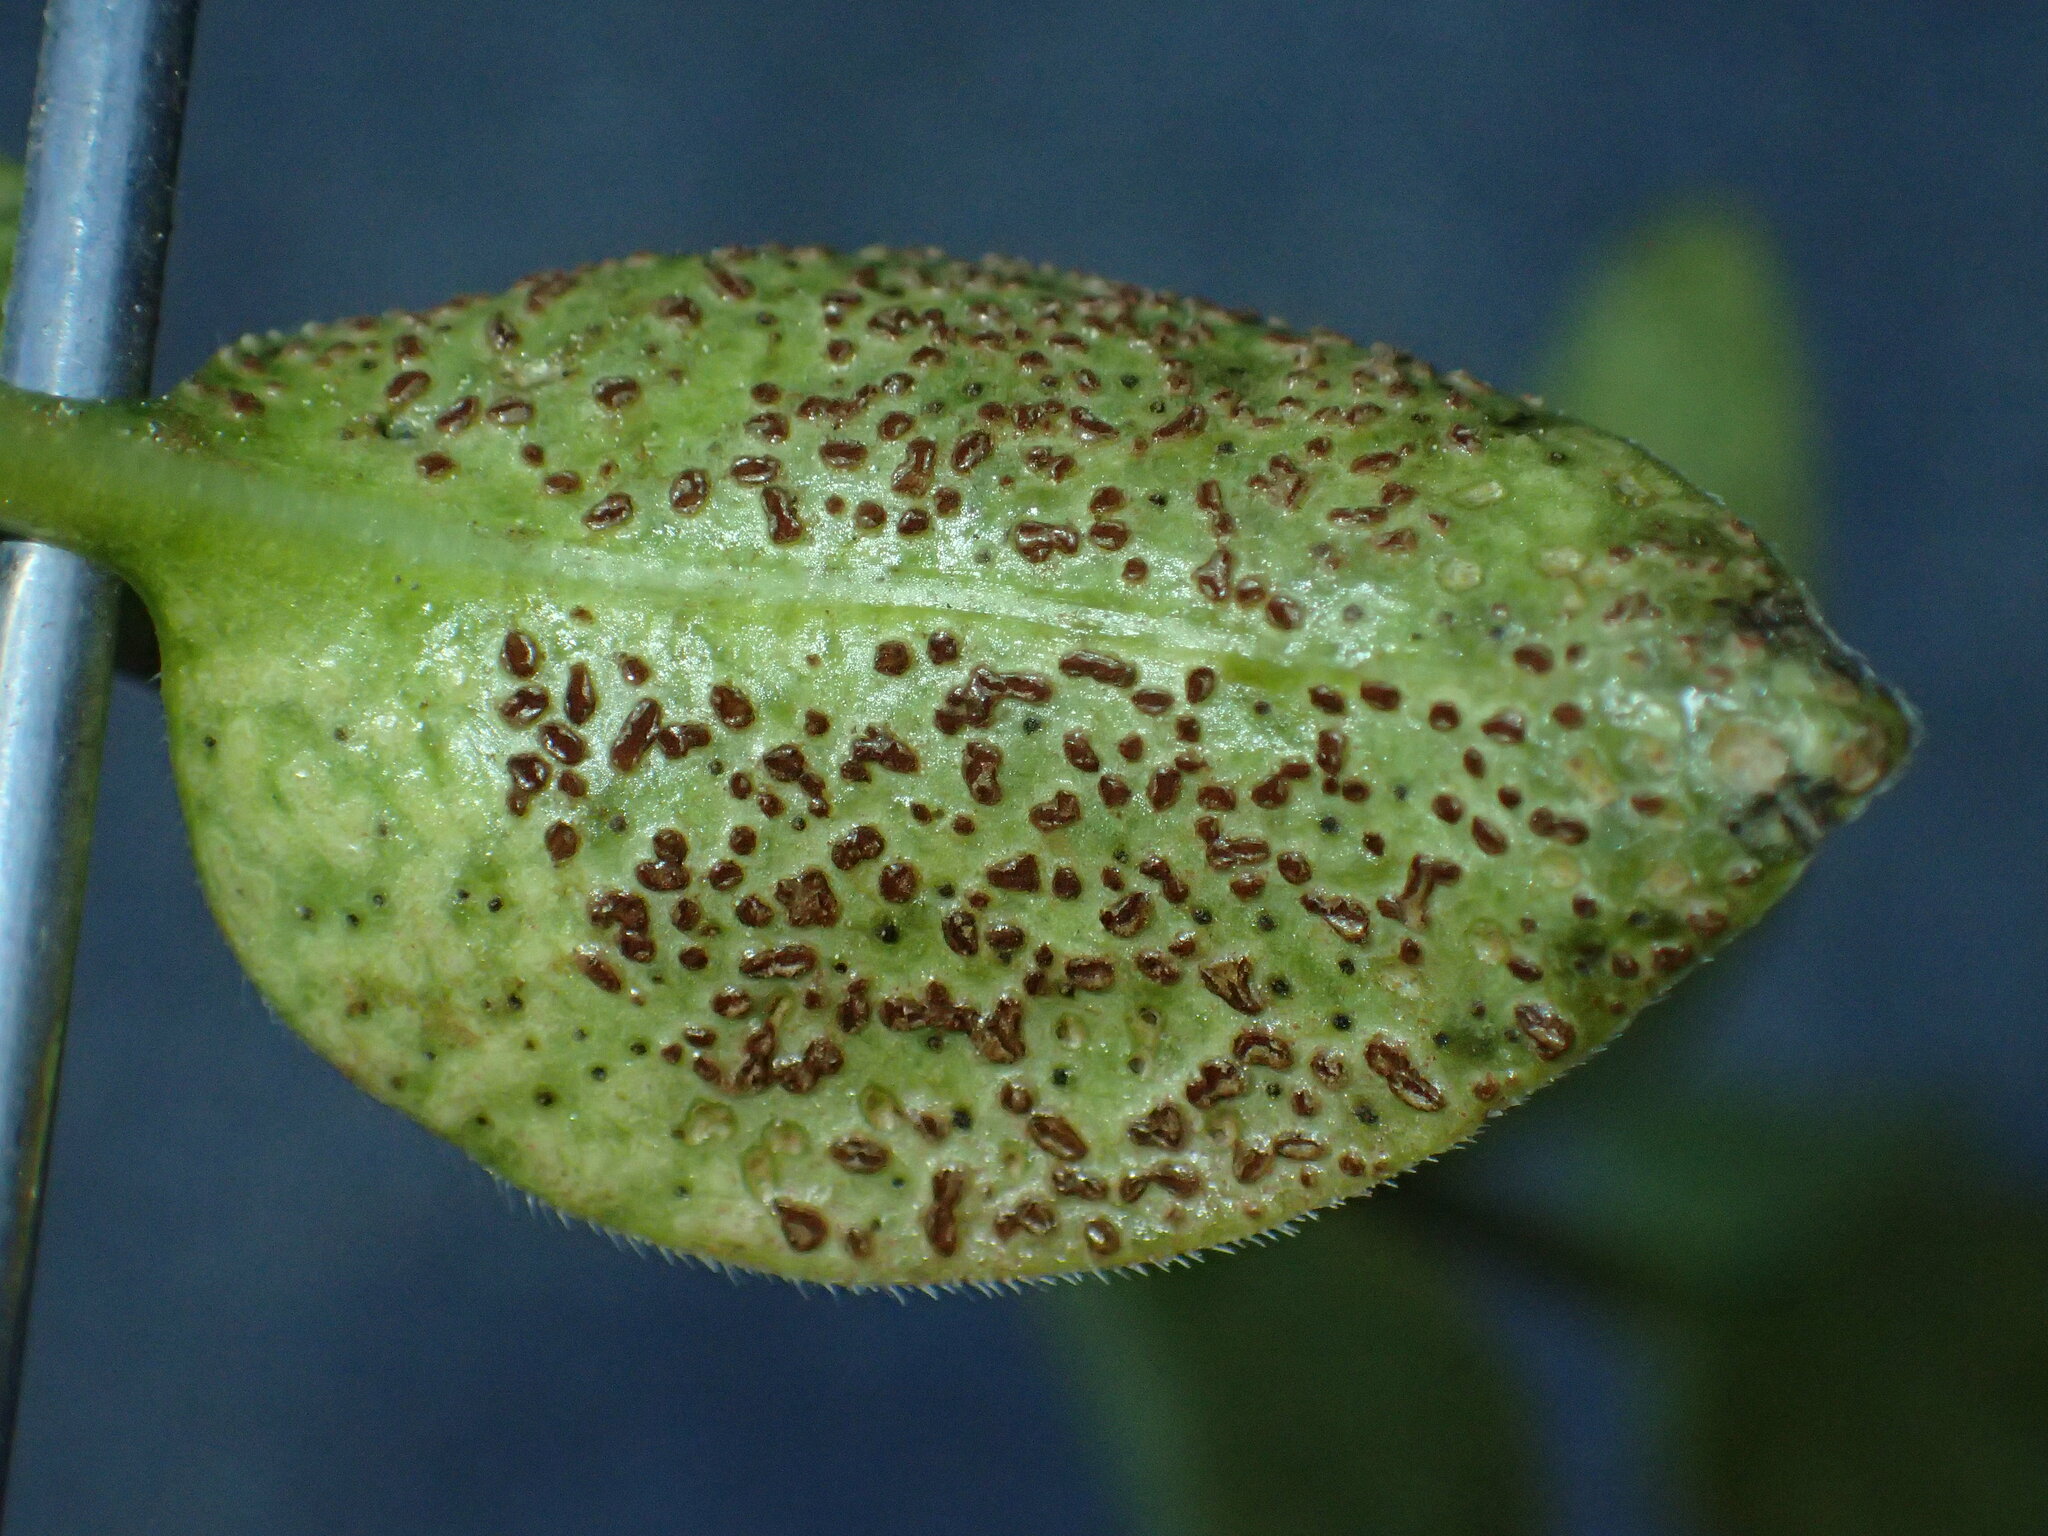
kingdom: Fungi
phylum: Basidiomycota
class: Pucciniomycetes
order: Pucciniales
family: Pucciniaceae
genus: Puccinia
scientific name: Puccinia vincae
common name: Periwinkle rust
